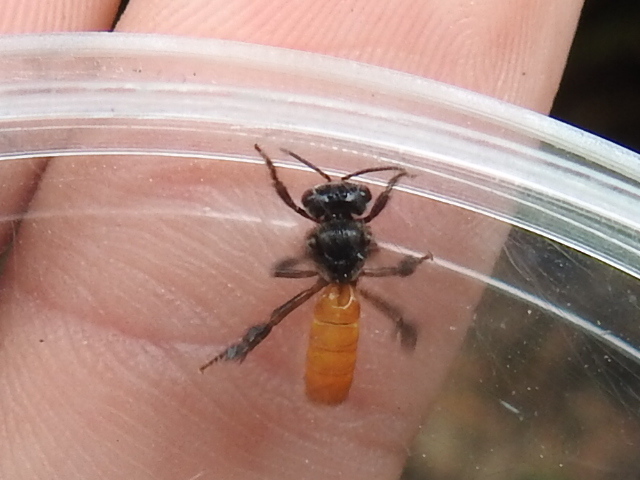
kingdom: Animalia
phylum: Arthropoda
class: Insecta
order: Hymenoptera
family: Apidae
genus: Trigona
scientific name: Trigona fulviventris
